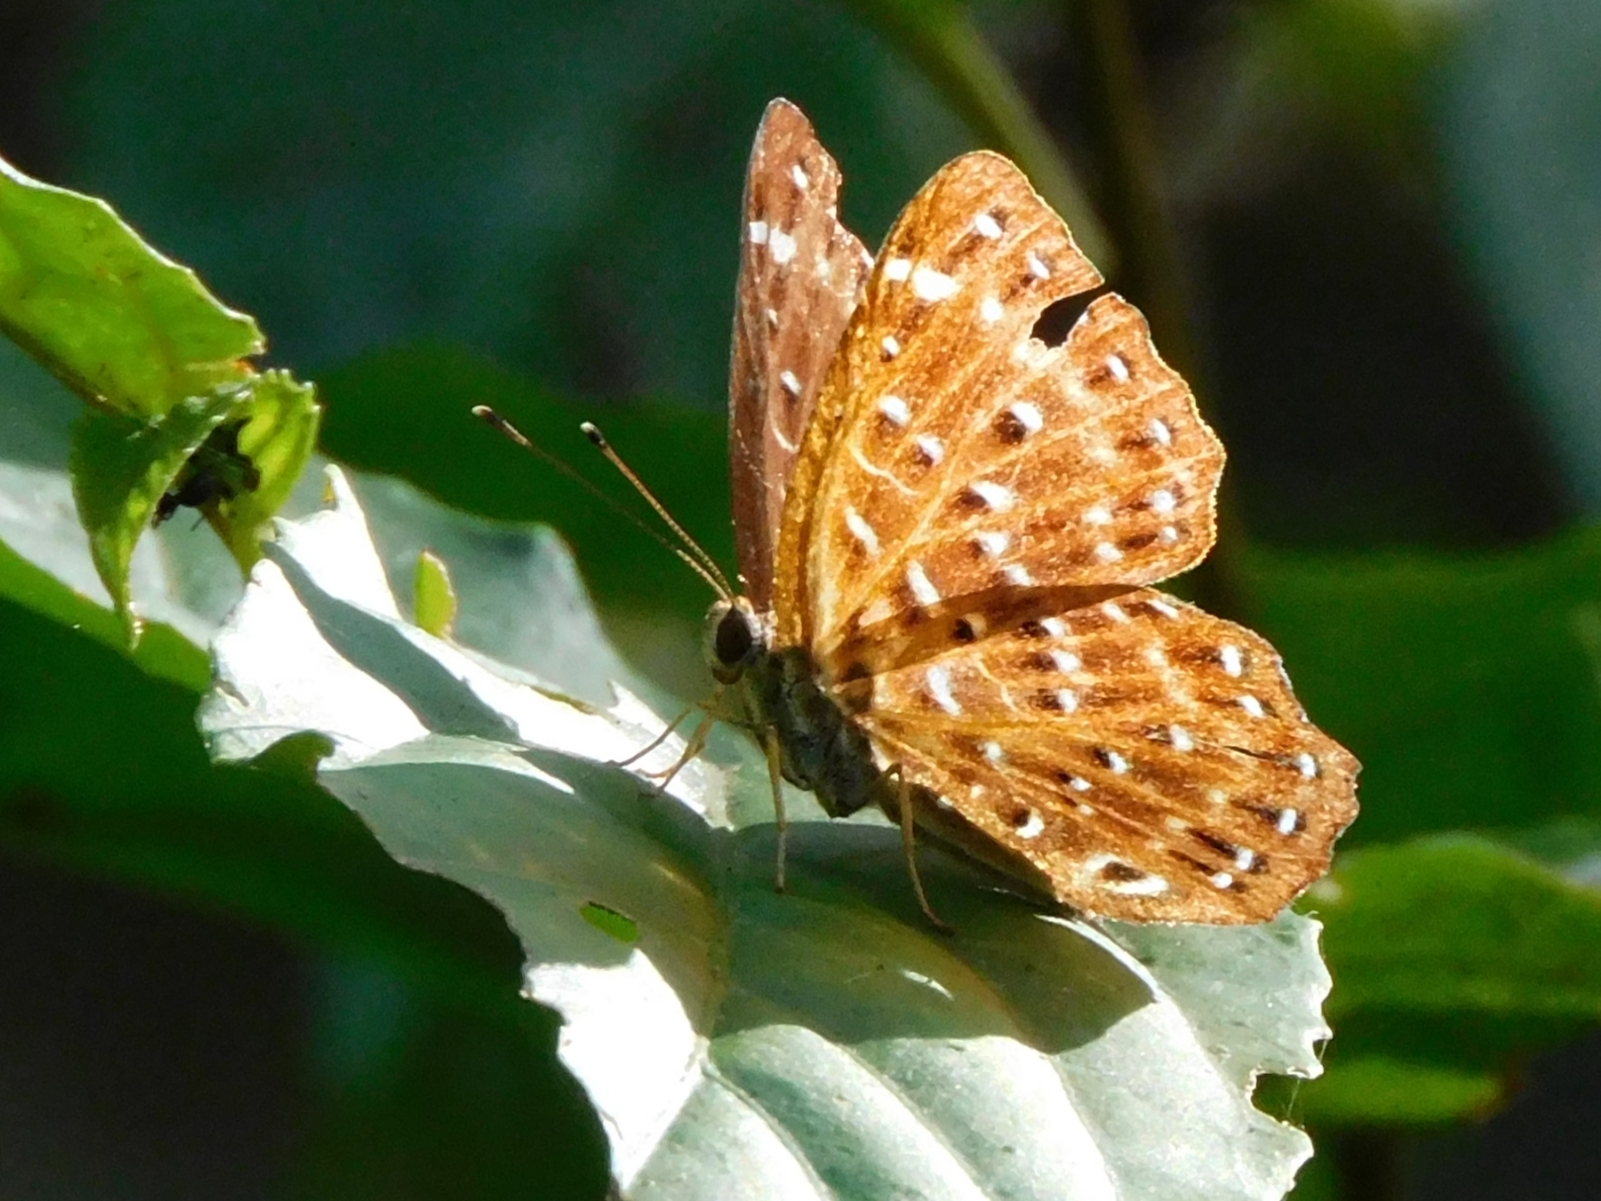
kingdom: Animalia
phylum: Arthropoda
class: Insecta
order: Lepidoptera
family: Riodinidae
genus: Zemeros
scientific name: Zemeros flegyas
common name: Punchinello
